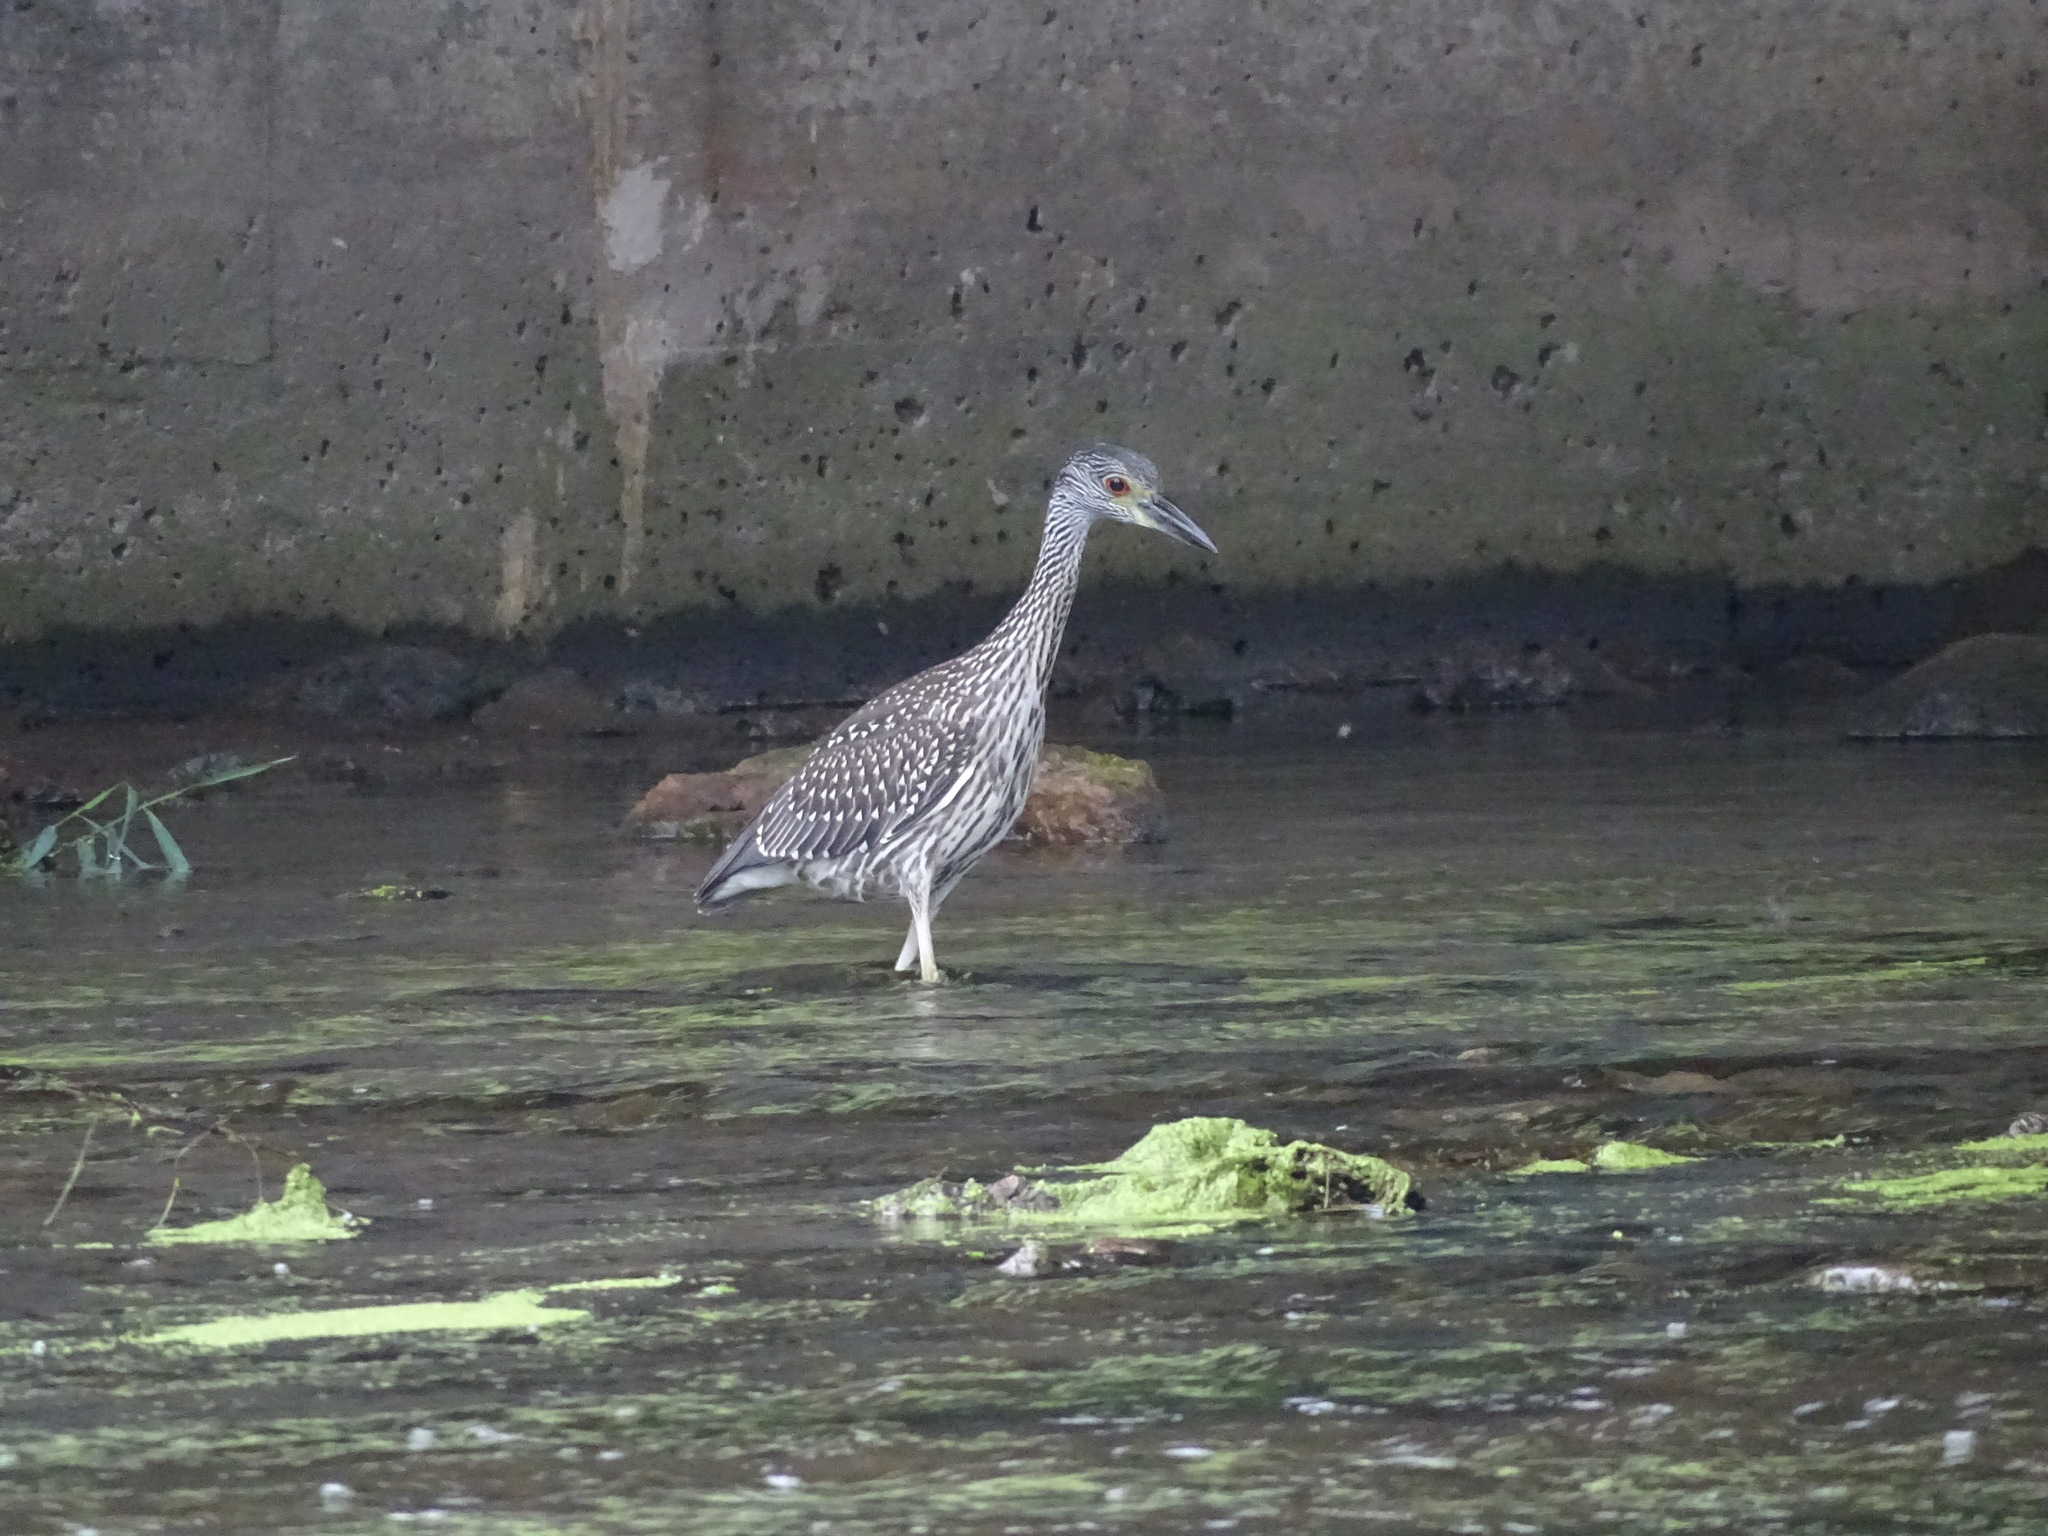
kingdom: Animalia
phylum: Chordata
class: Aves
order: Pelecaniformes
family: Ardeidae
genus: Nyctanassa
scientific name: Nyctanassa violacea
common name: Yellow-crowned night heron
